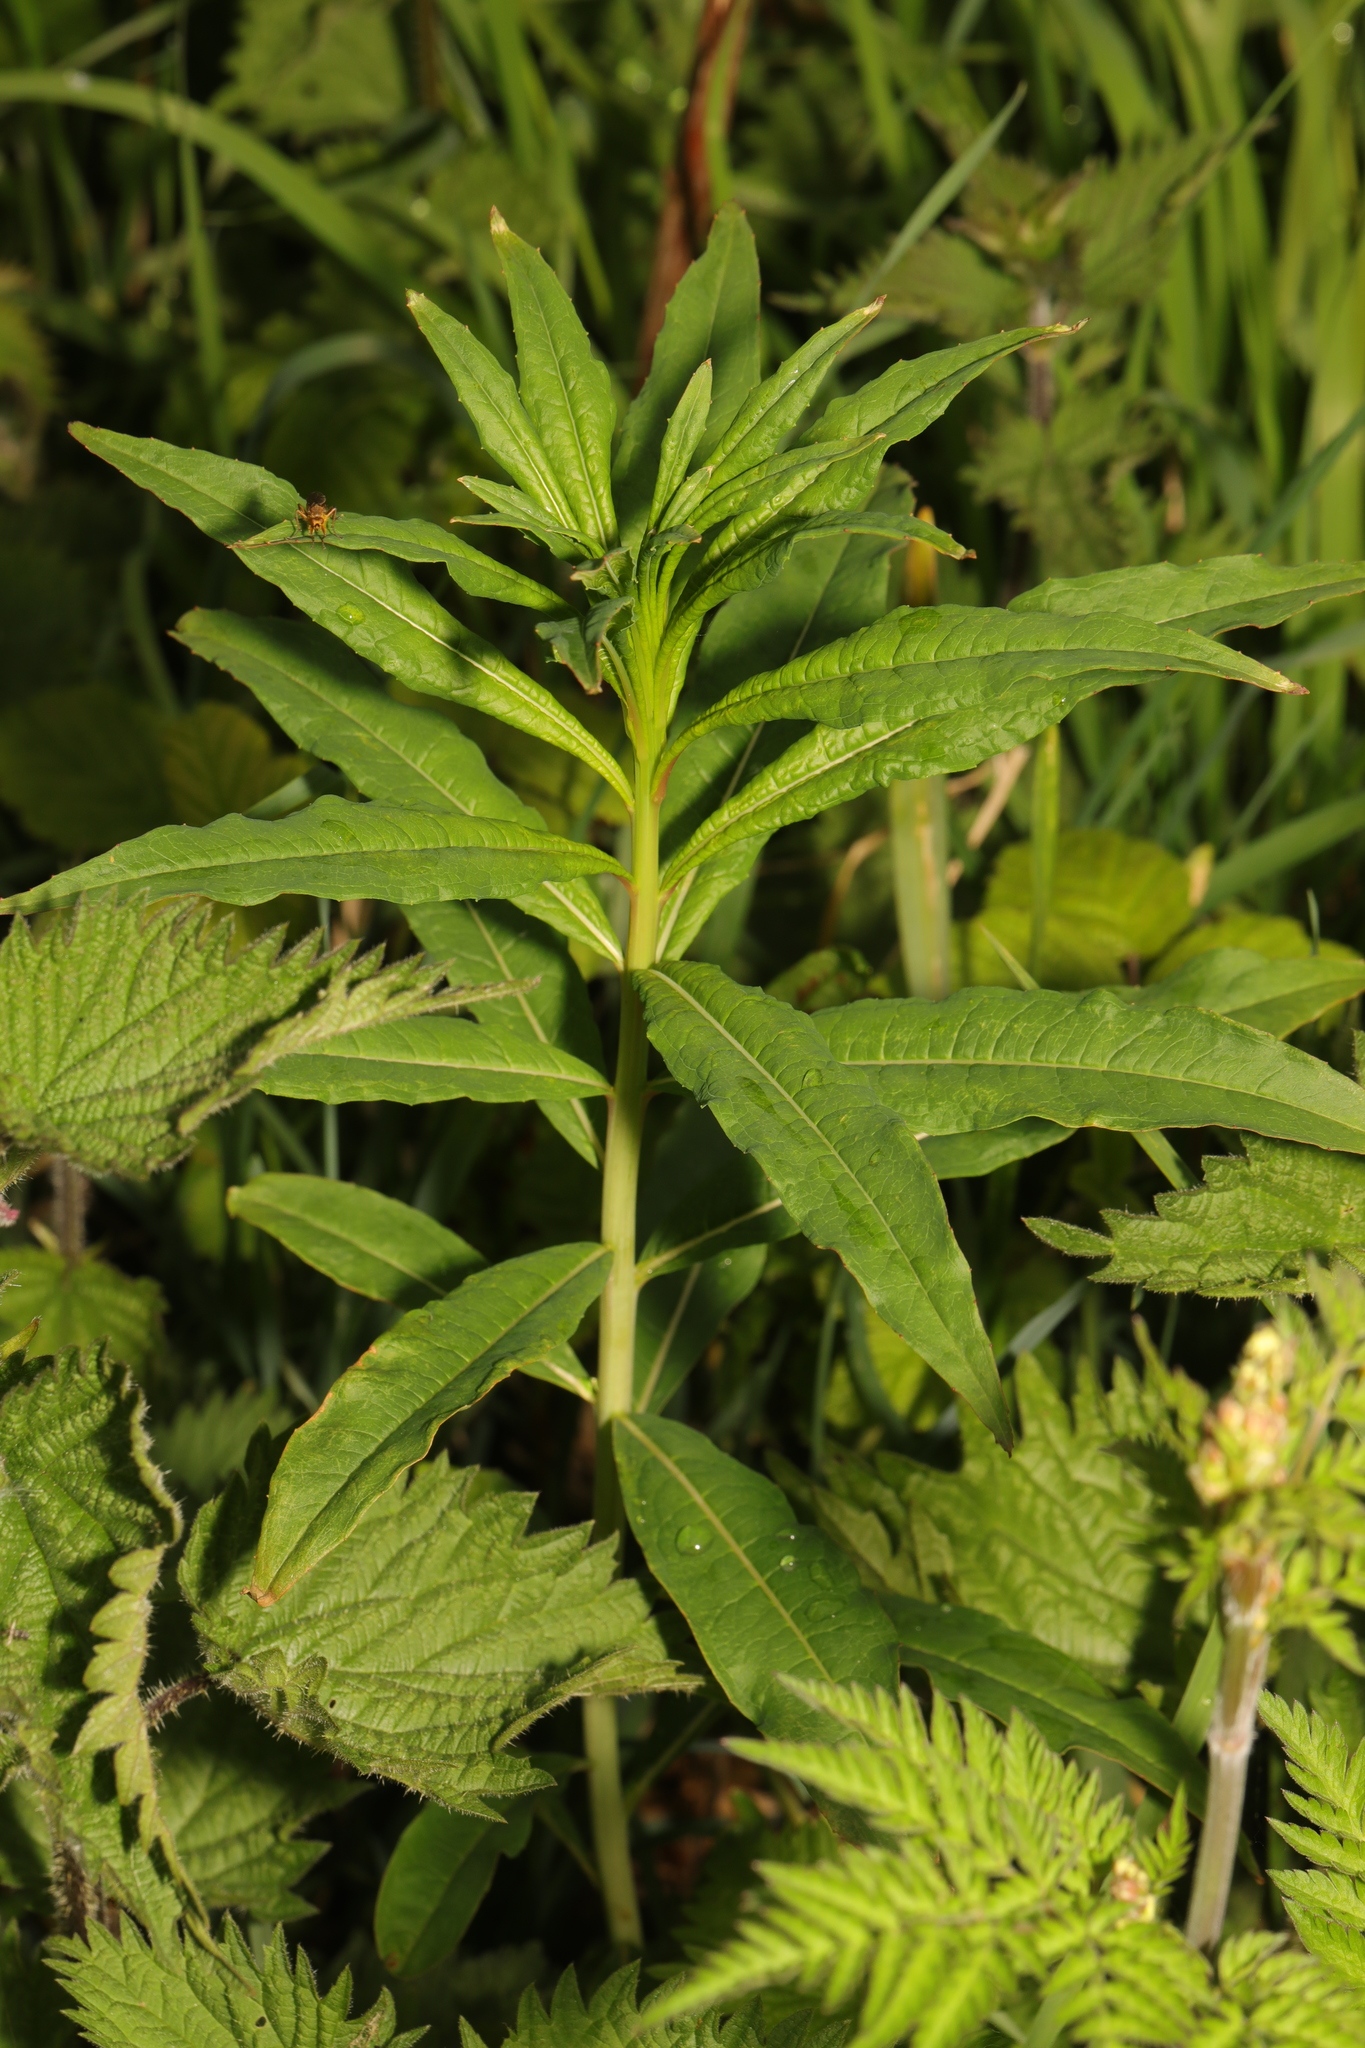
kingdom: Plantae
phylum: Tracheophyta
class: Magnoliopsida
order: Myrtales
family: Onagraceae
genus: Chamaenerion
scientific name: Chamaenerion angustifolium
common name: Fireweed
